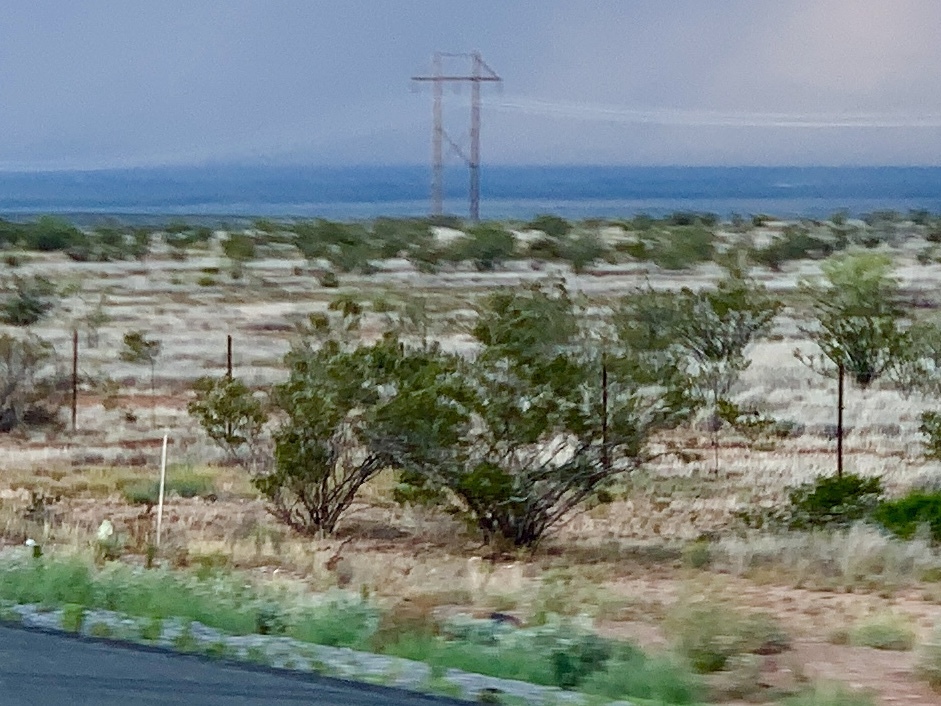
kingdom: Plantae
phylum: Tracheophyta
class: Magnoliopsida
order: Zygophyllales
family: Zygophyllaceae
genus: Larrea
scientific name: Larrea tridentata
